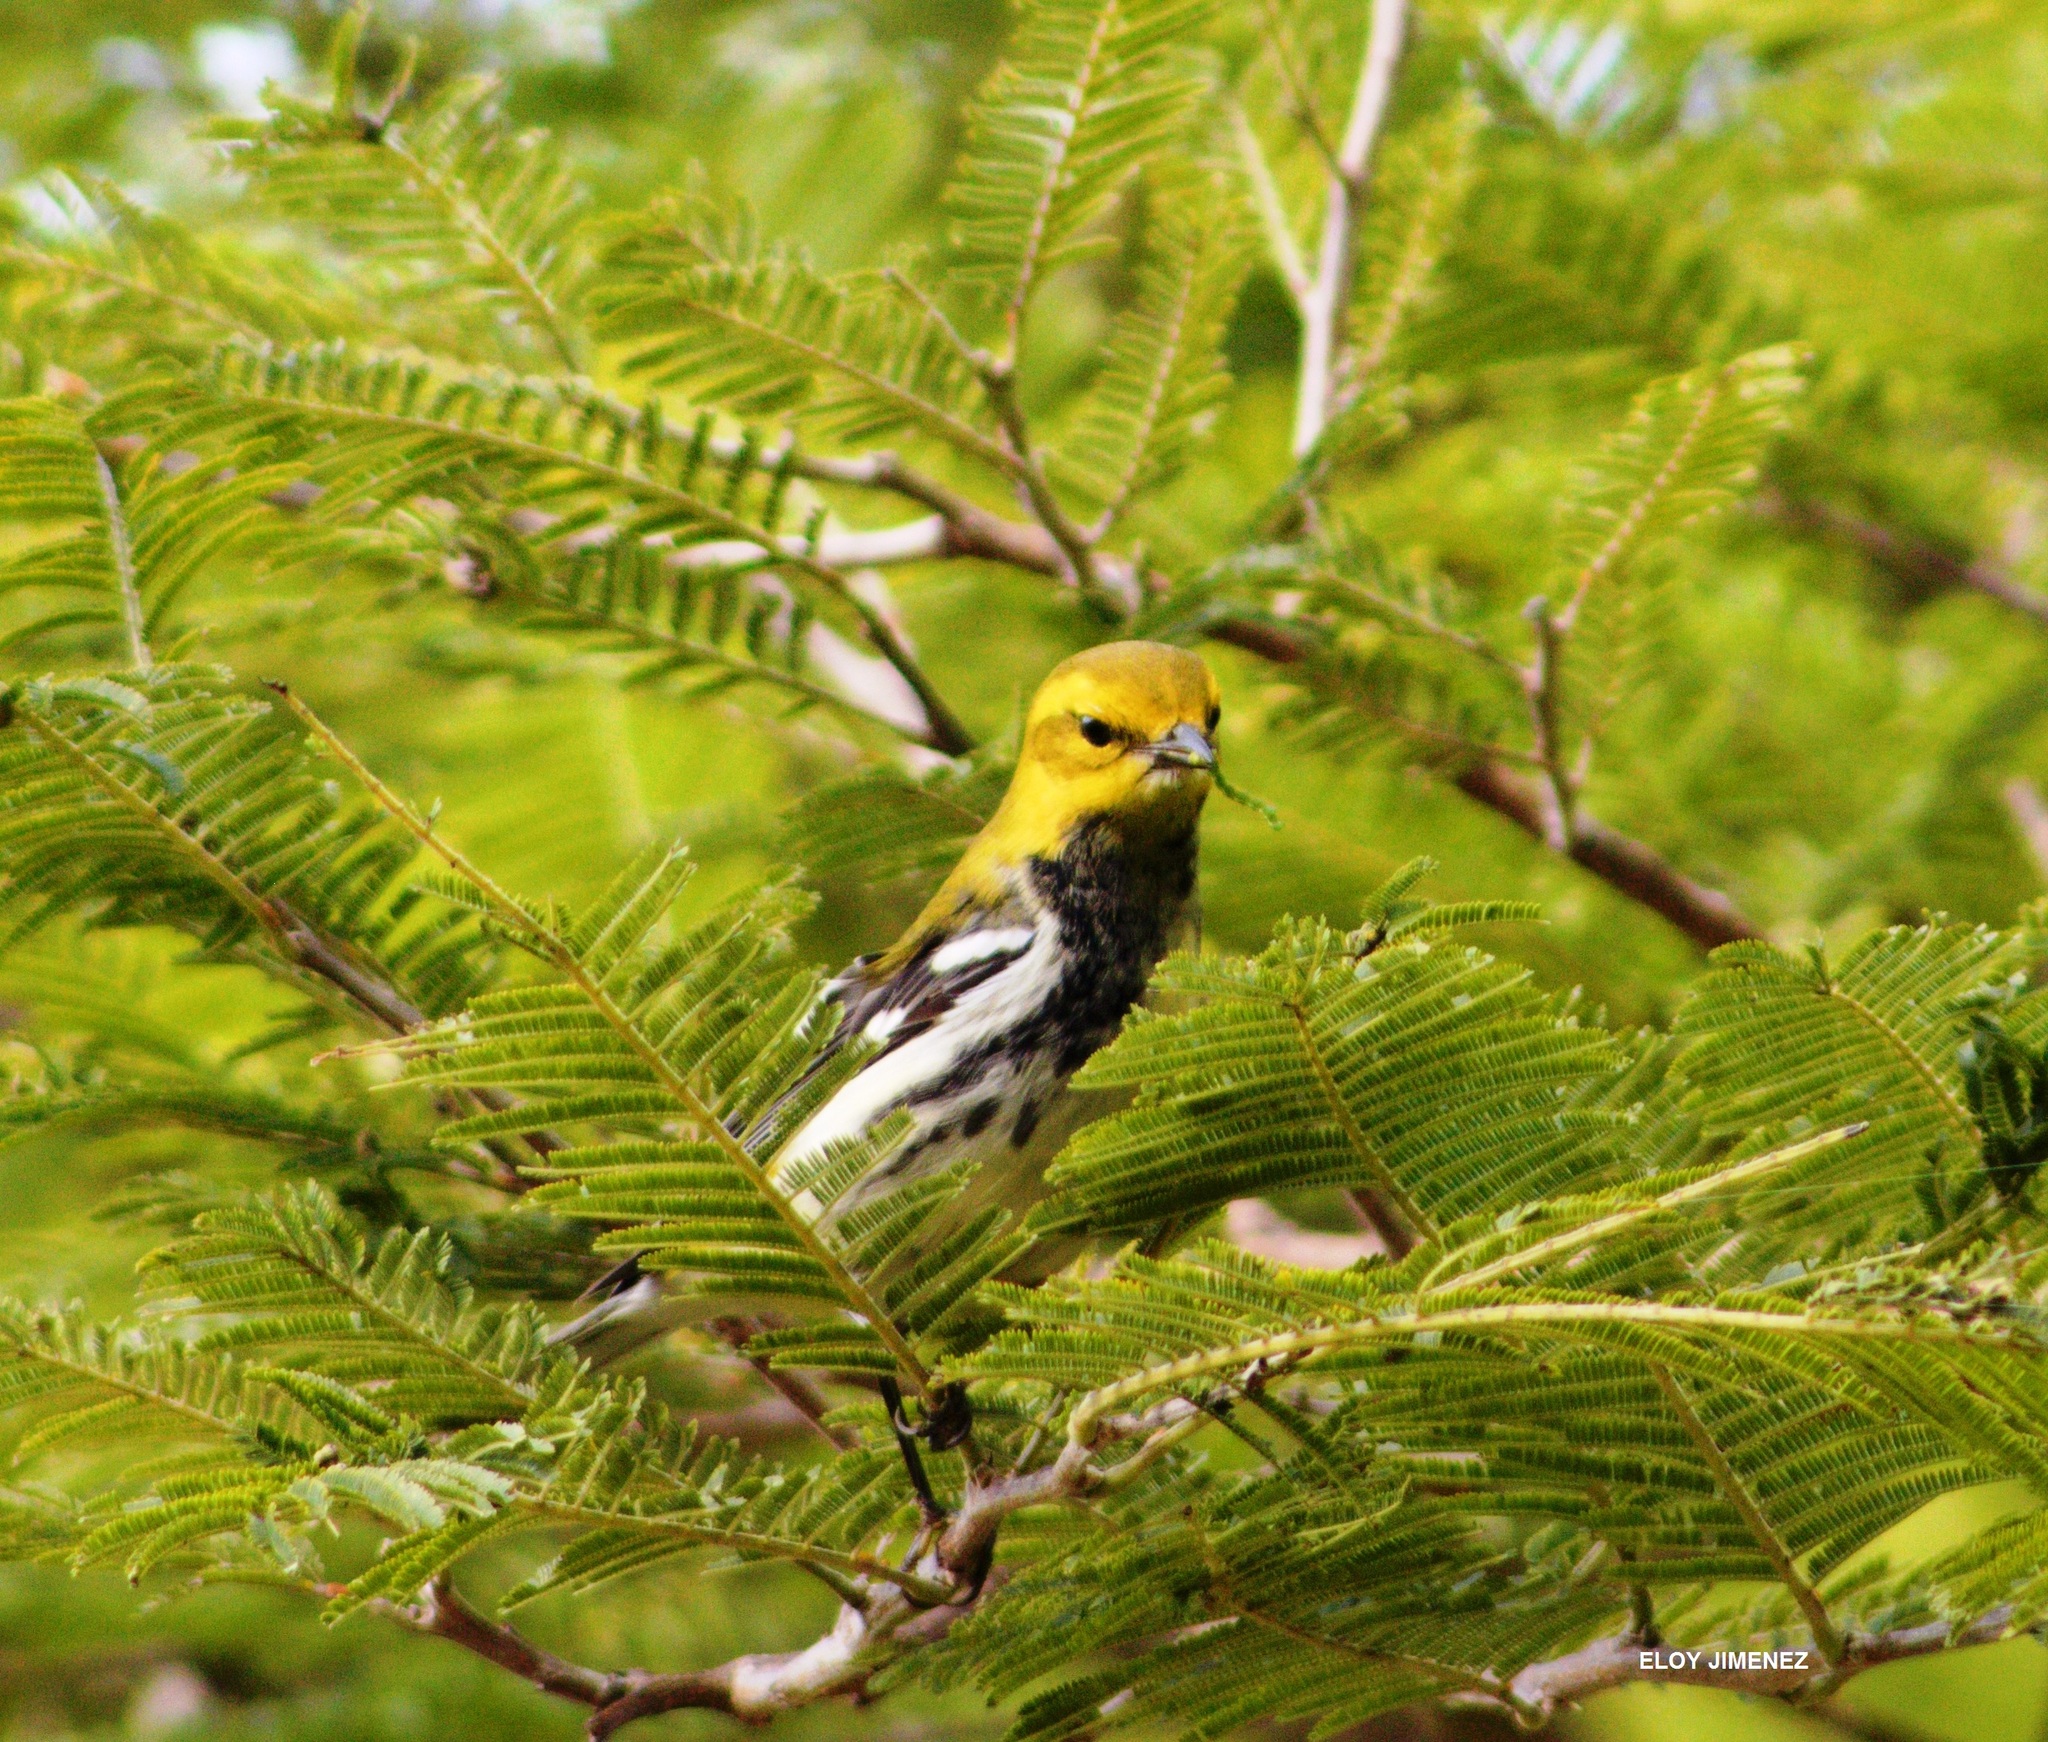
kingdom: Animalia
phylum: Chordata
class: Aves
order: Passeriformes
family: Parulidae
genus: Setophaga
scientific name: Setophaga virens
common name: Black-throated green warbler
